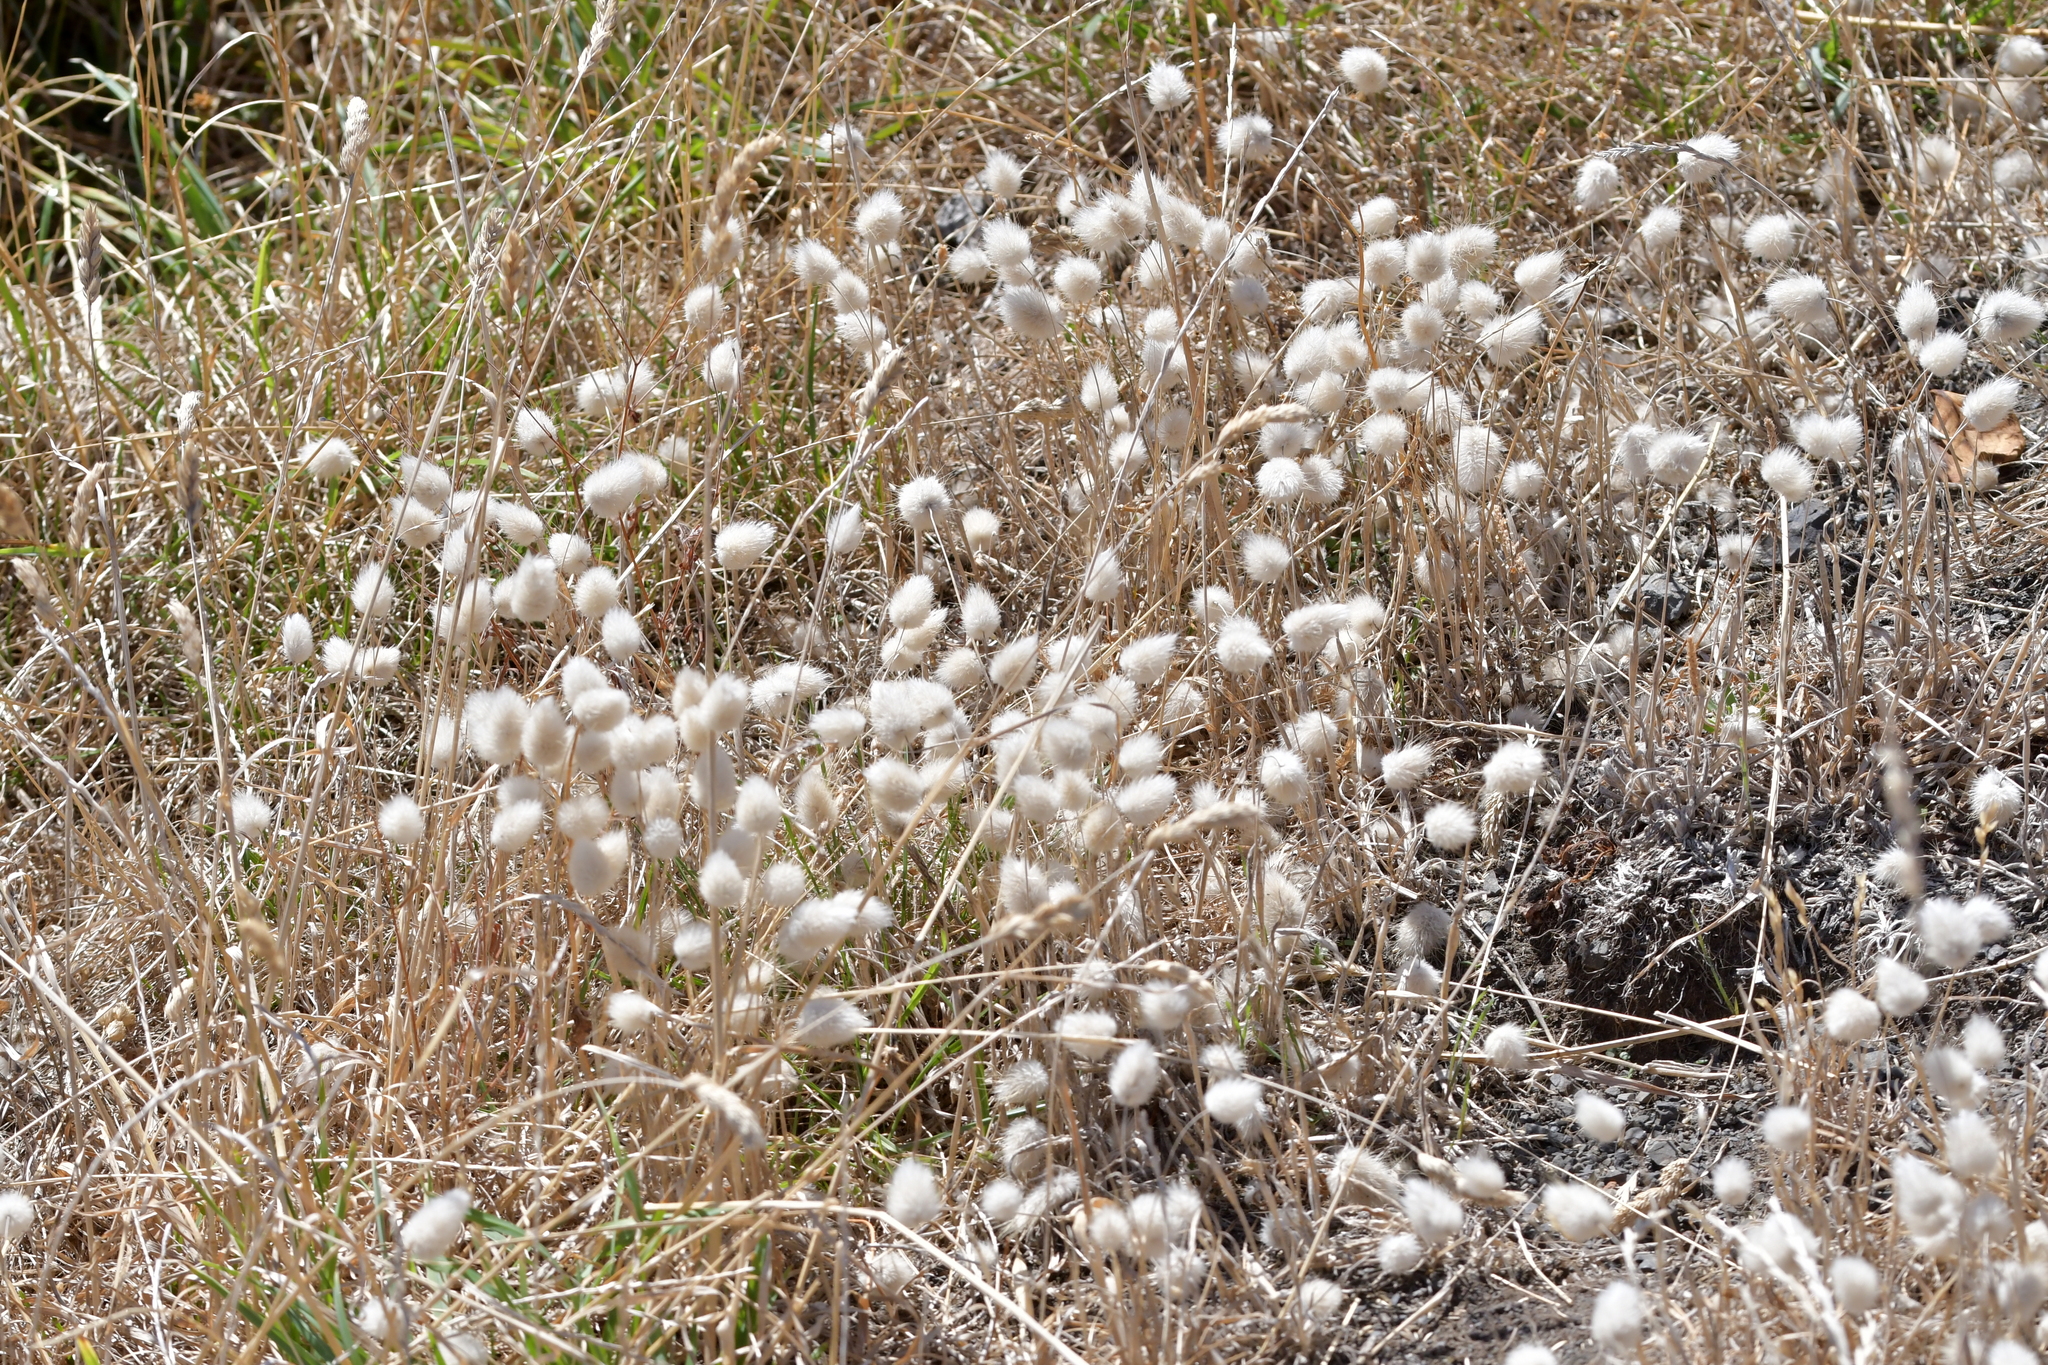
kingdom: Plantae
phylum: Tracheophyta
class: Liliopsida
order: Poales
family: Poaceae
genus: Lagurus
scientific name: Lagurus ovatus
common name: Hare's-tail
